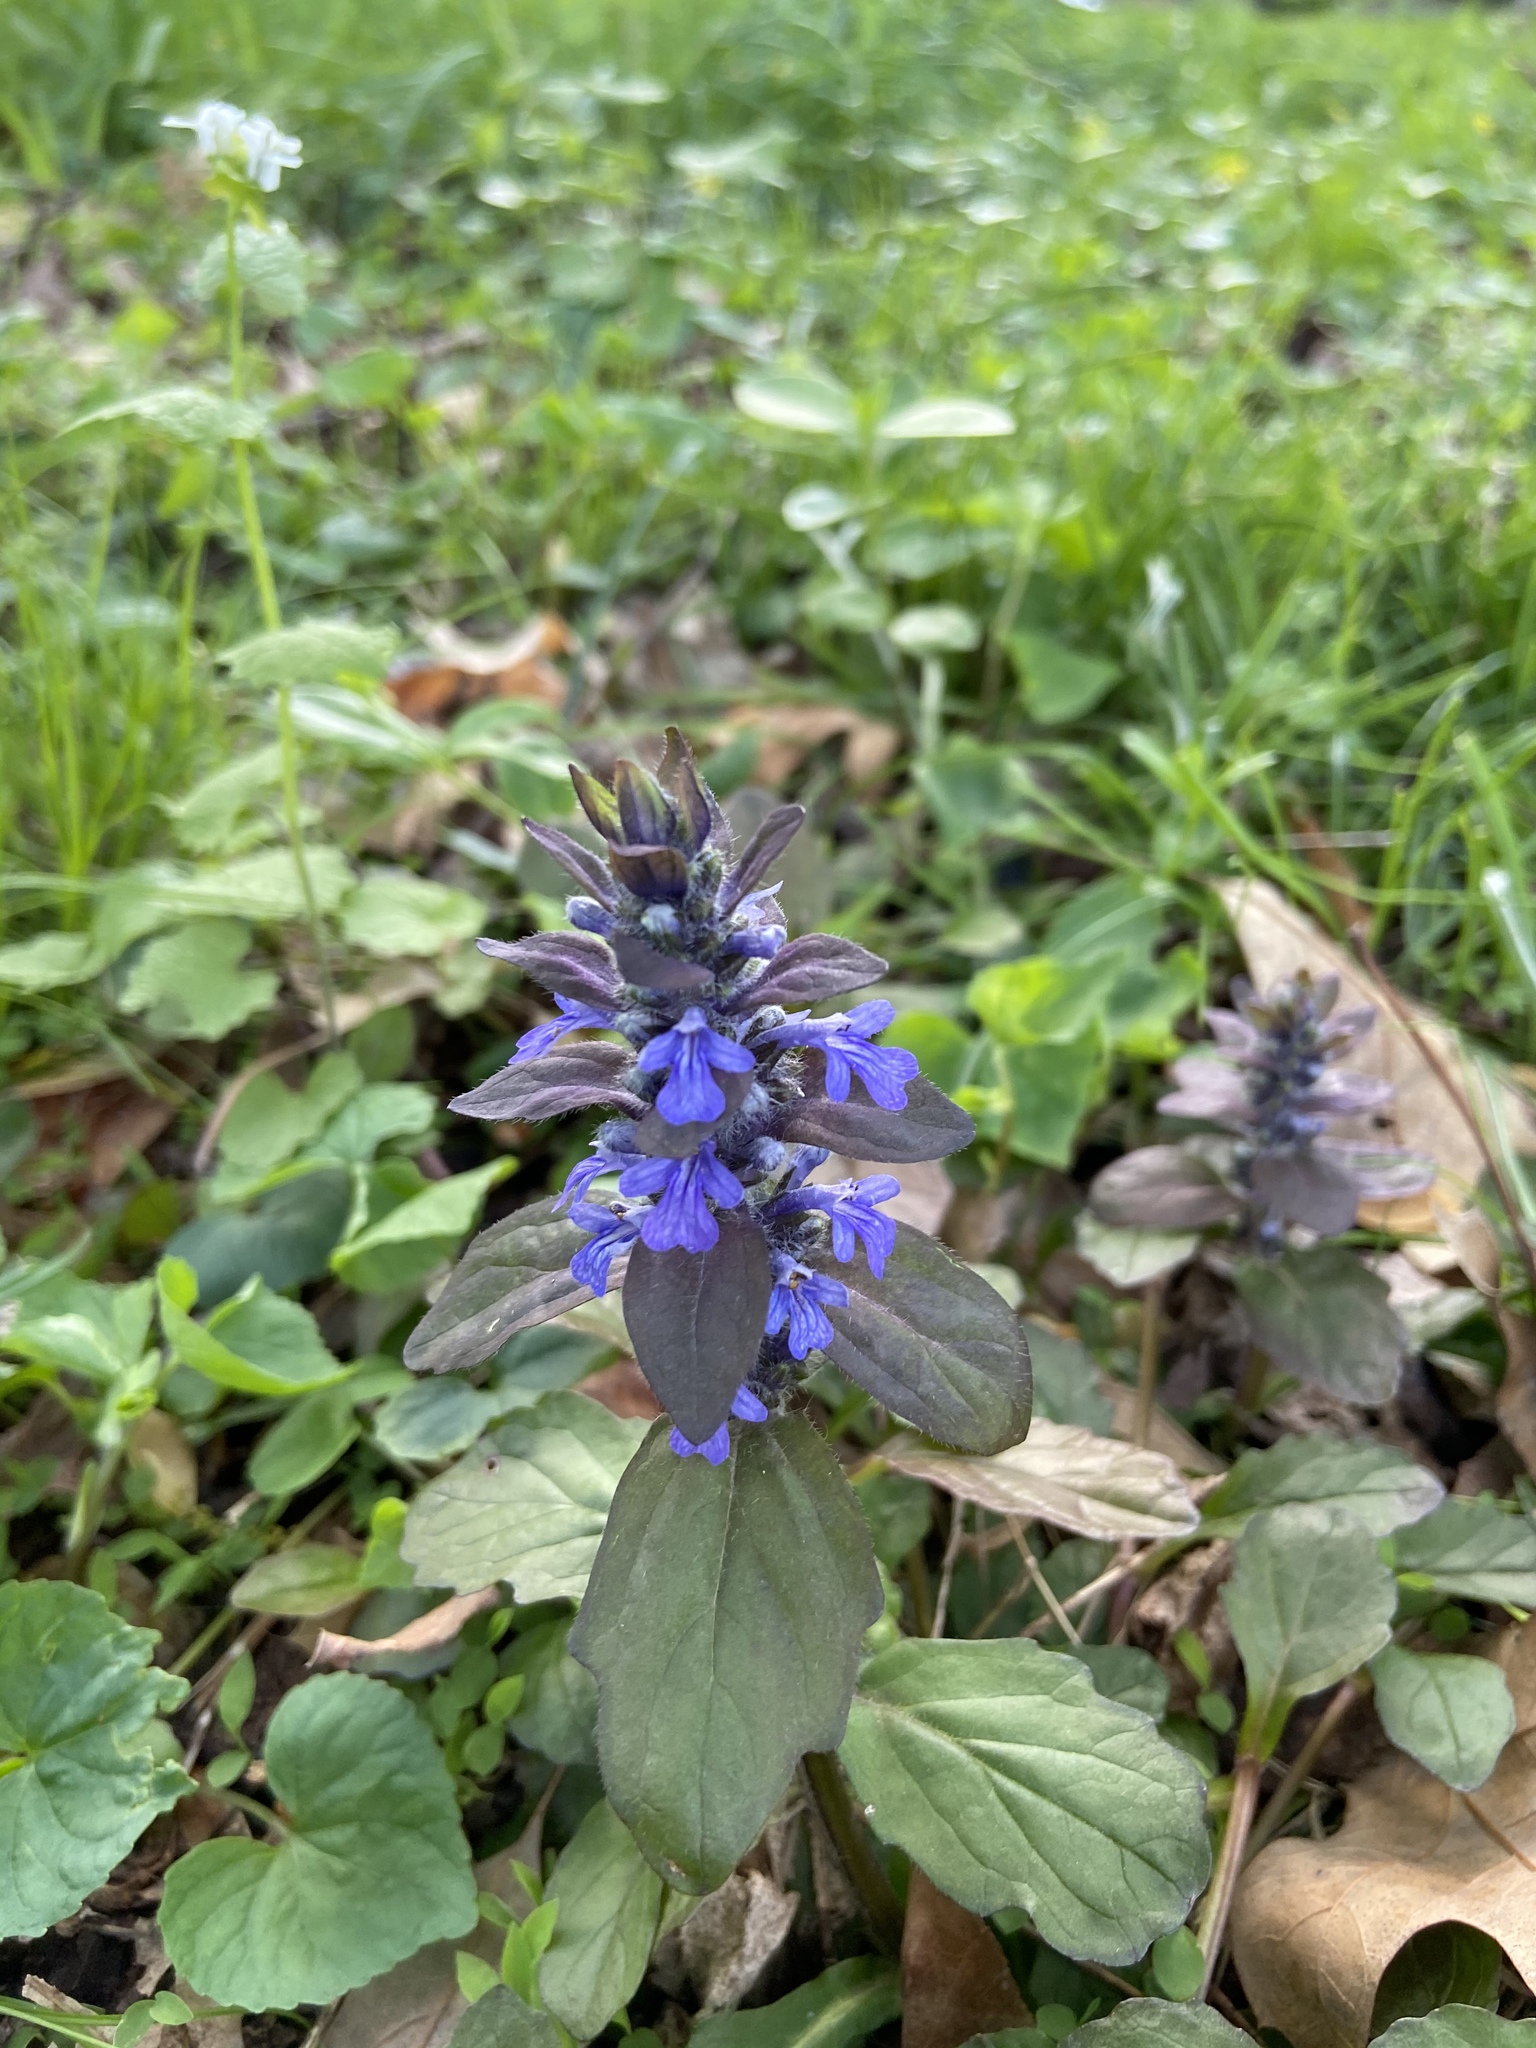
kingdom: Plantae
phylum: Tracheophyta
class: Magnoliopsida
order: Lamiales
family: Lamiaceae
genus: Ajuga
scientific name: Ajuga reptans
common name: Bugle
